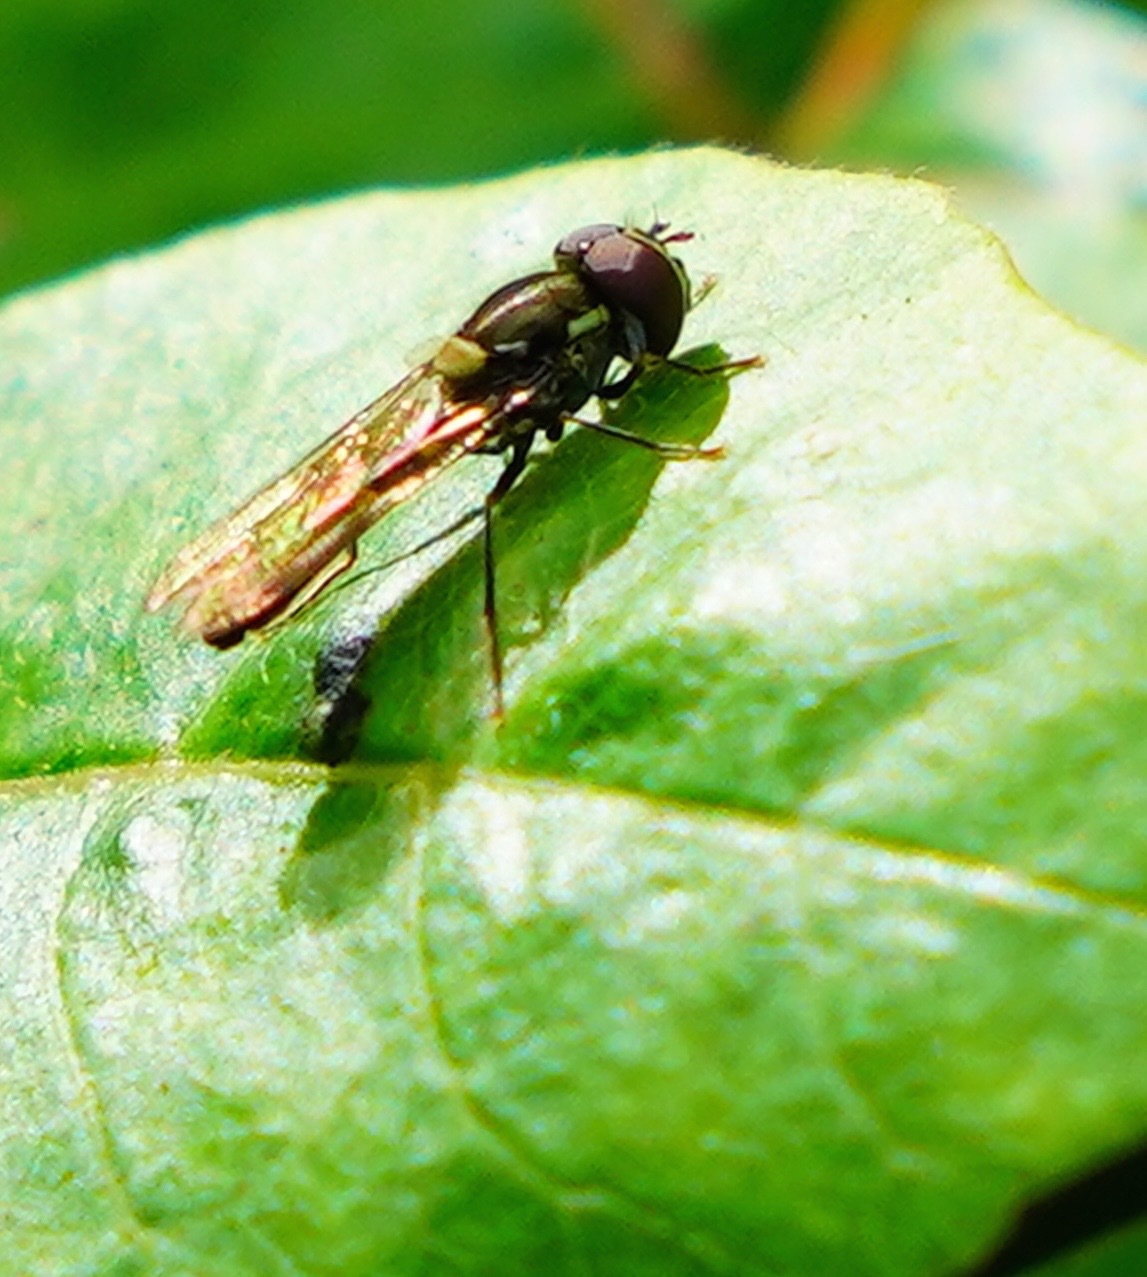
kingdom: Animalia
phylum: Arthropoda
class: Insecta
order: Diptera
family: Syrphidae
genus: Allograpta
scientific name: Allograpta exotica
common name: Syrphid fly
